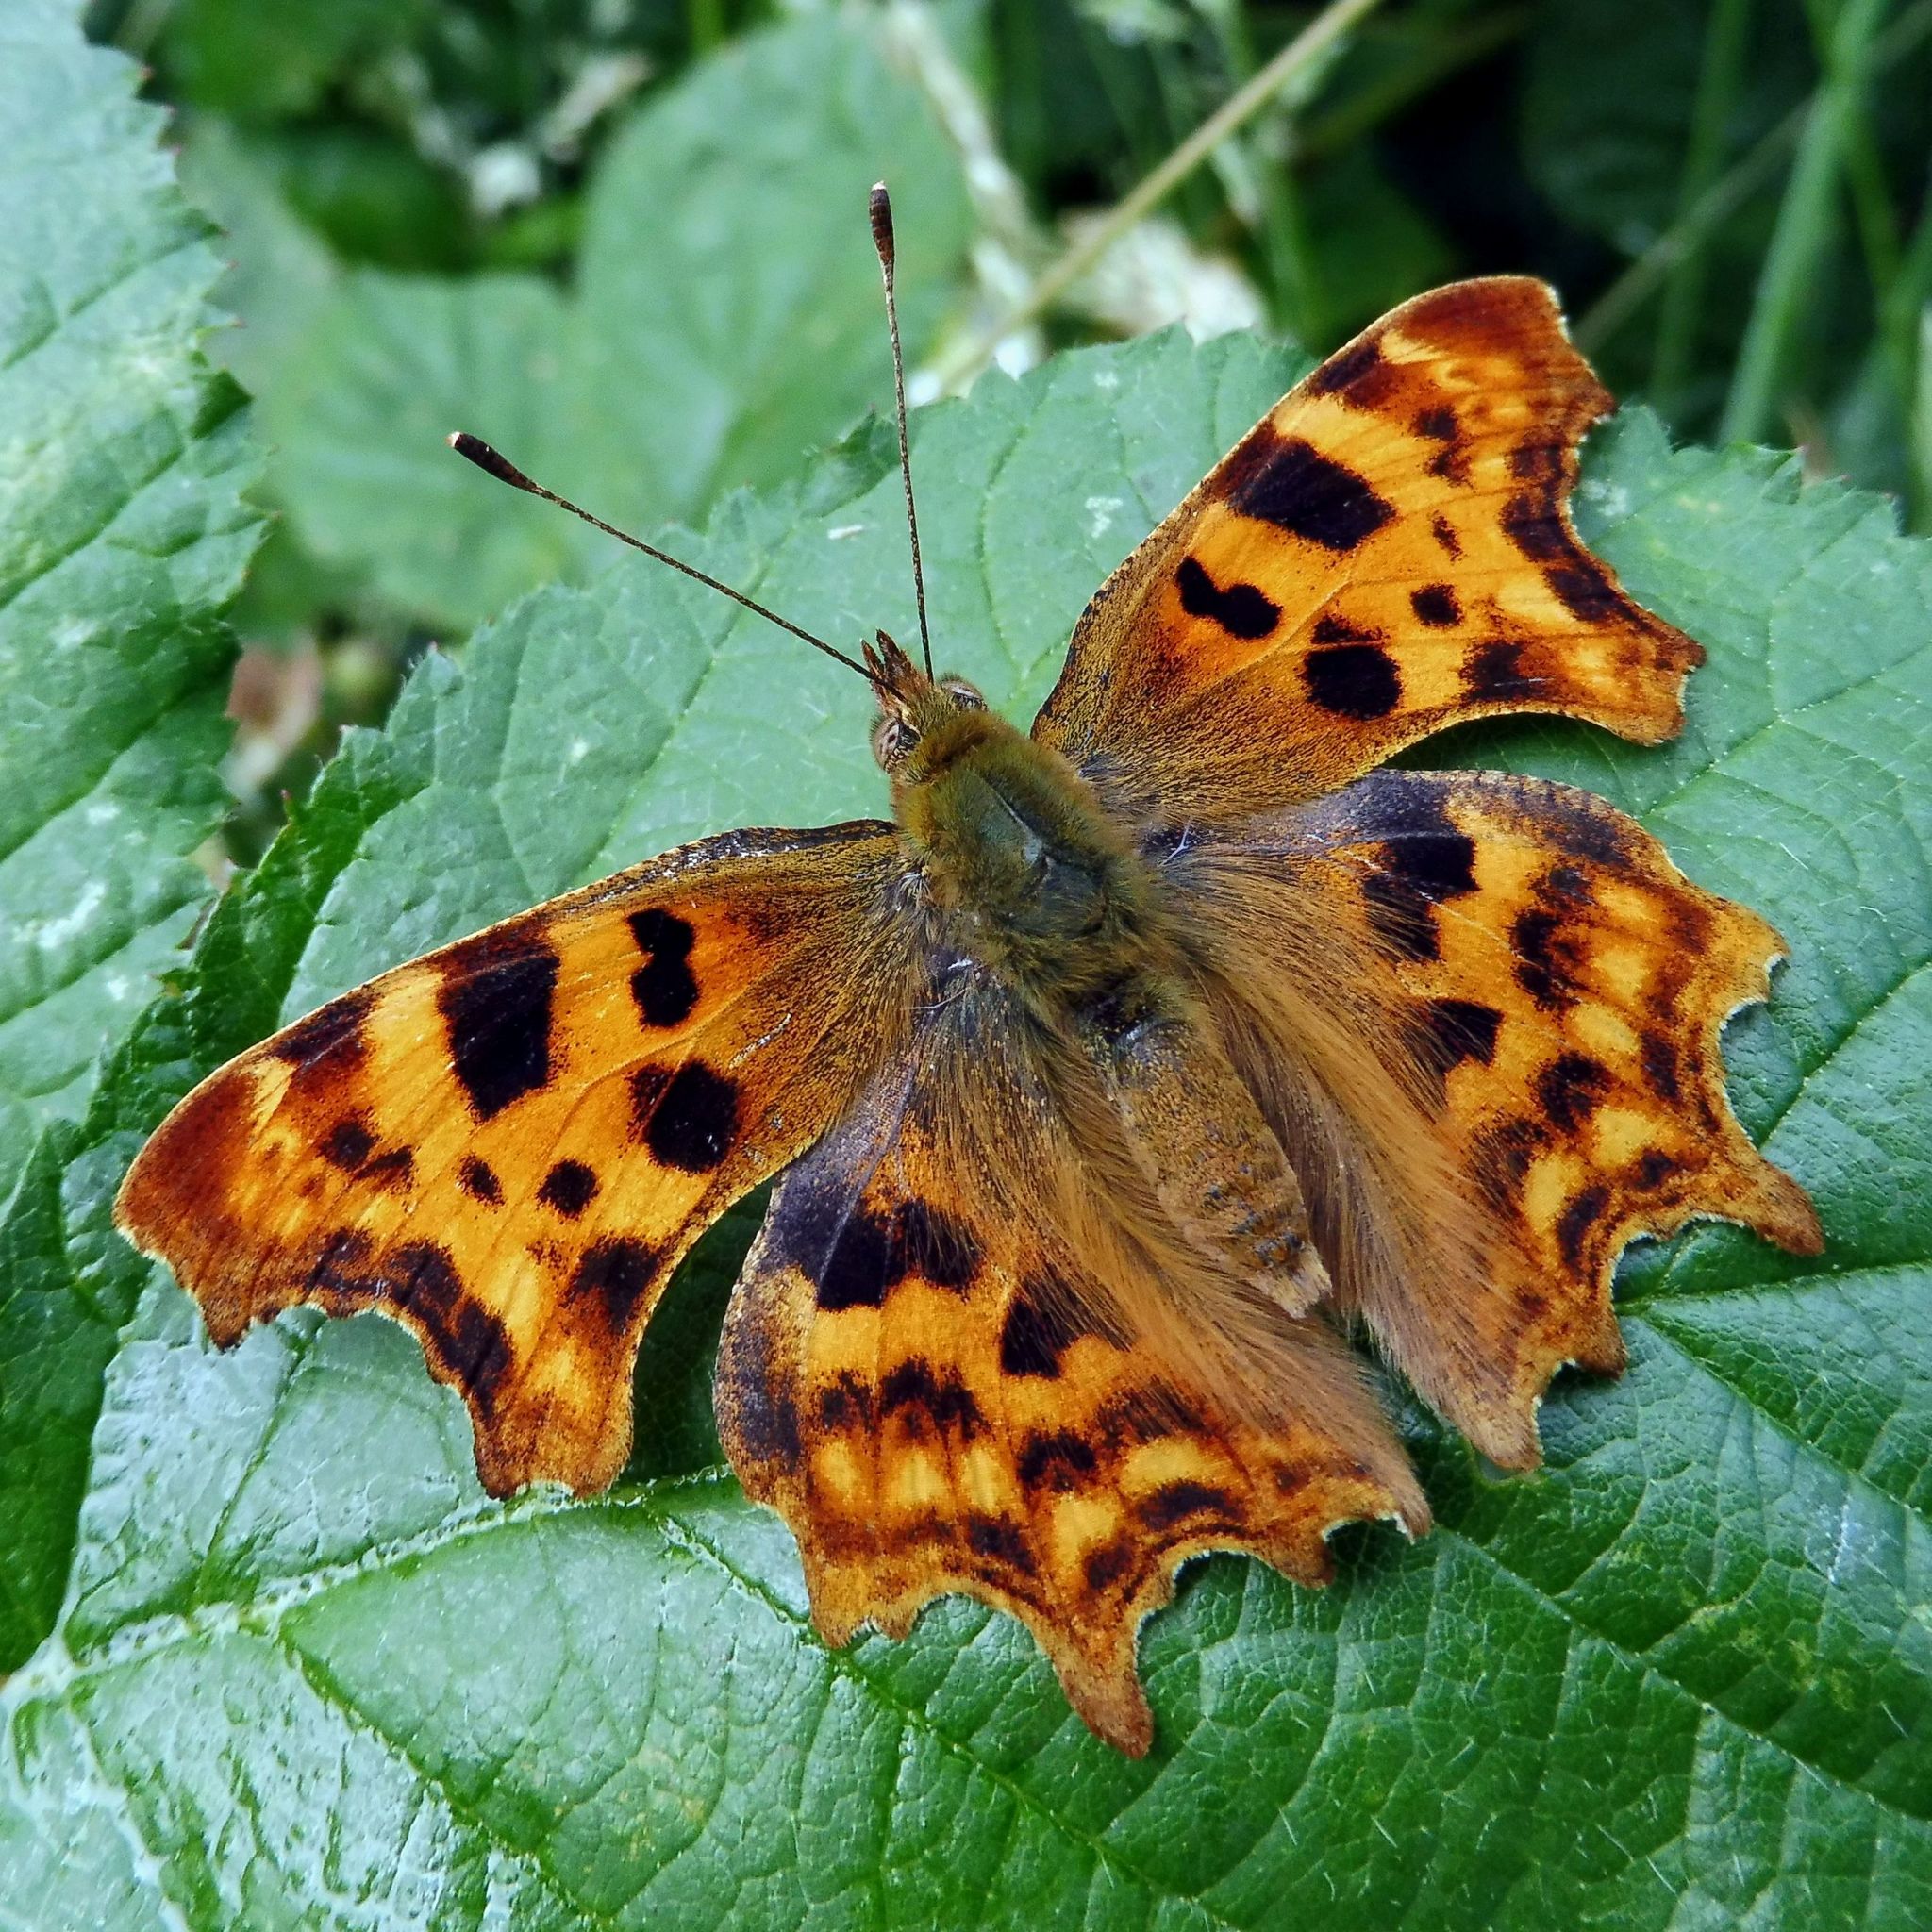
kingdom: Animalia
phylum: Arthropoda
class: Insecta
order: Lepidoptera
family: Nymphalidae
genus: Polygonia
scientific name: Polygonia c-album
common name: Comma
